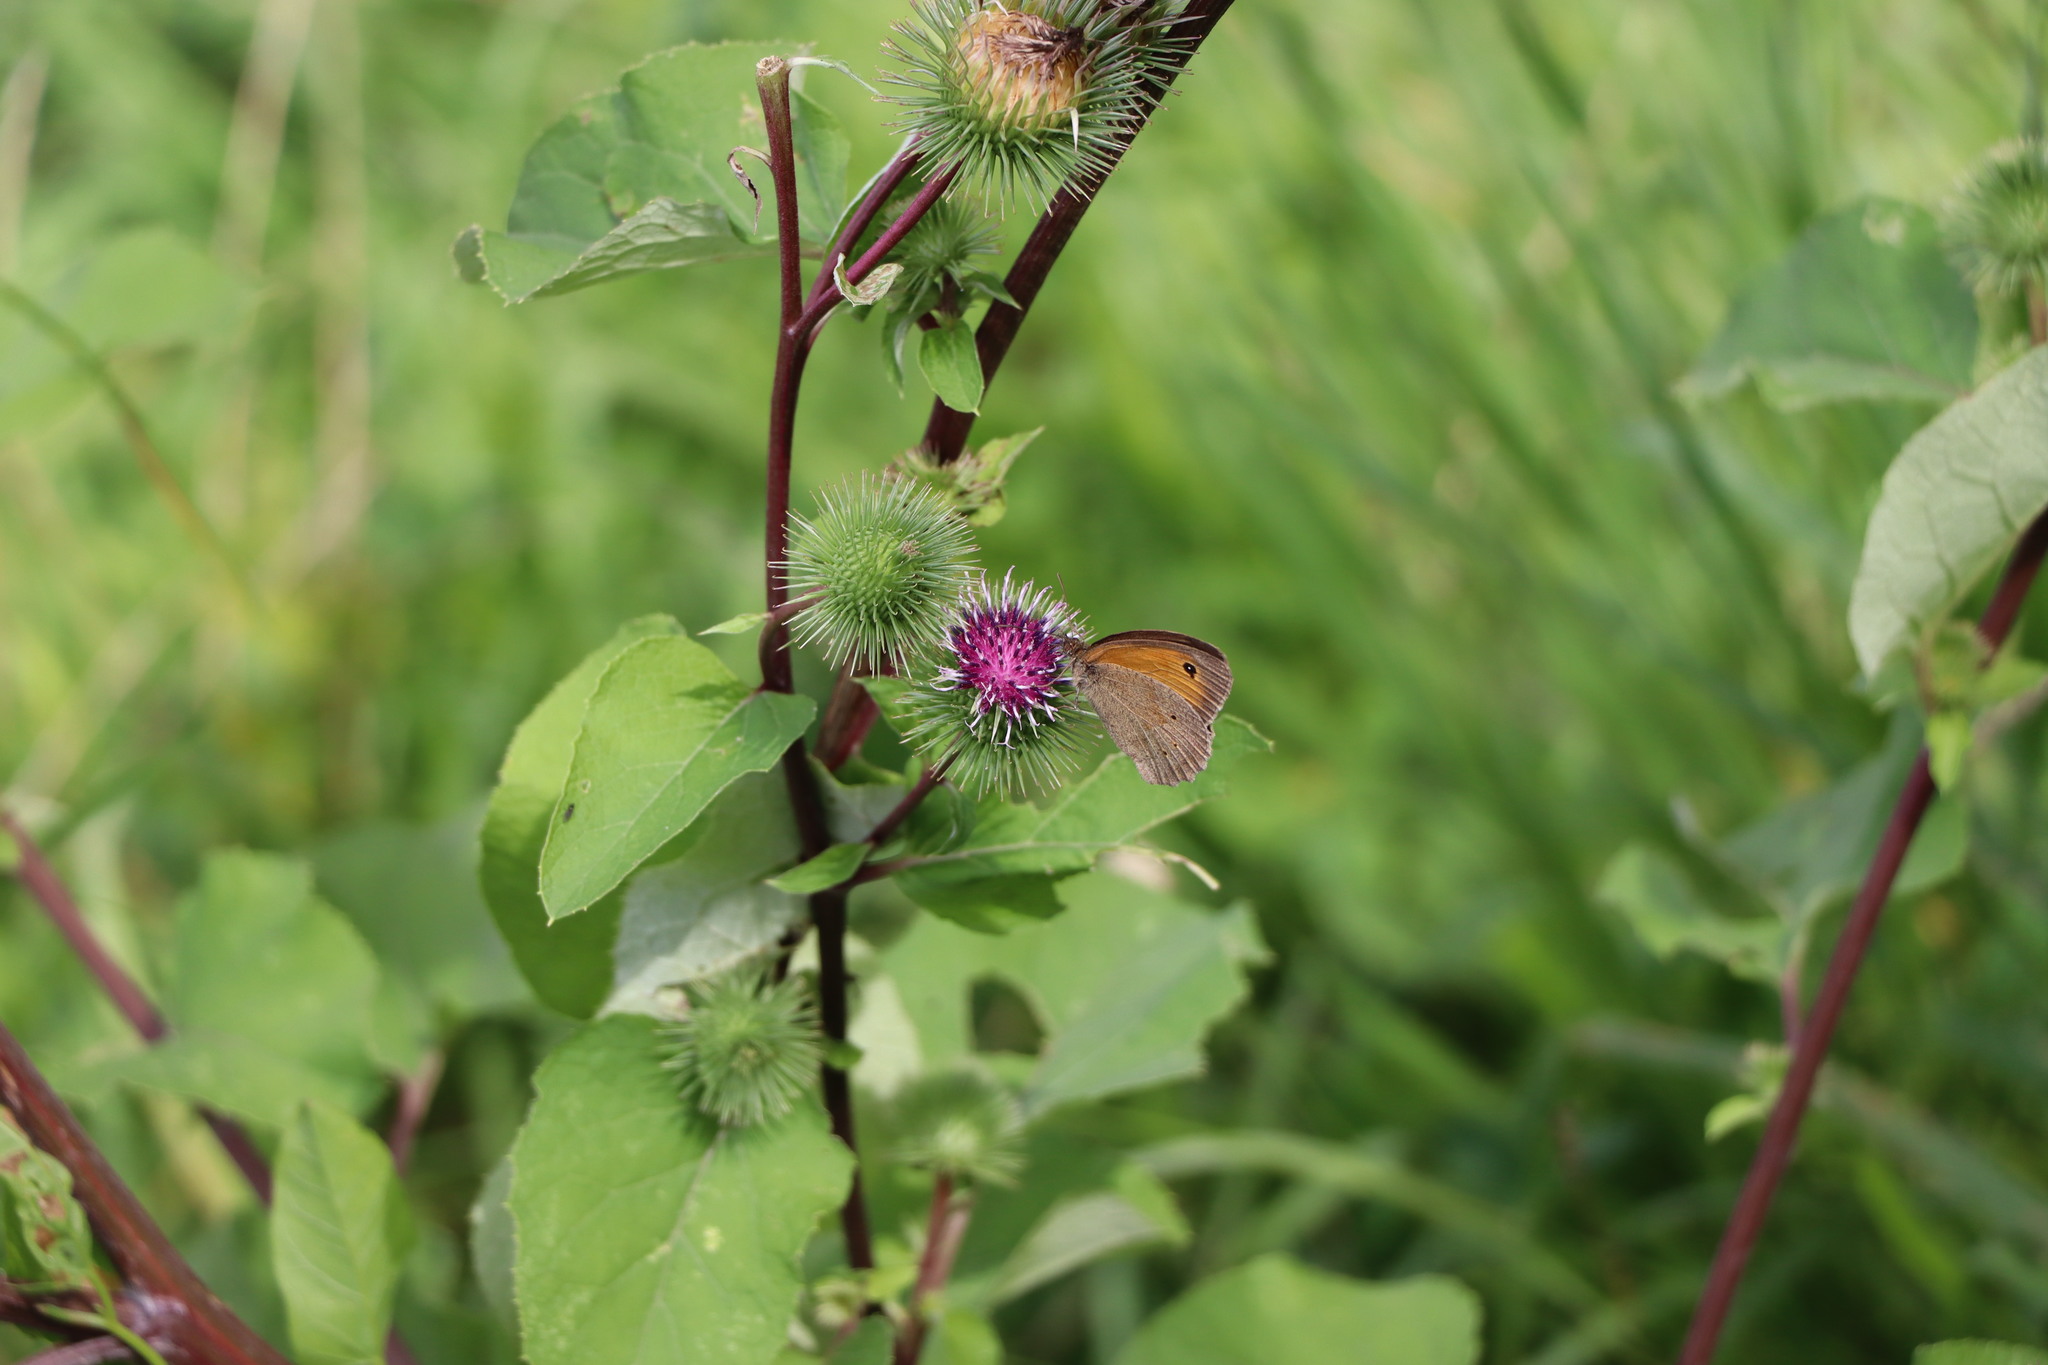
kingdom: Animalia
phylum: Arthropoda
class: Insecta
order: Lepidoptera
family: Nymphalidae
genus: Maniola
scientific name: Maniola jurtina
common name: Meadow brown
